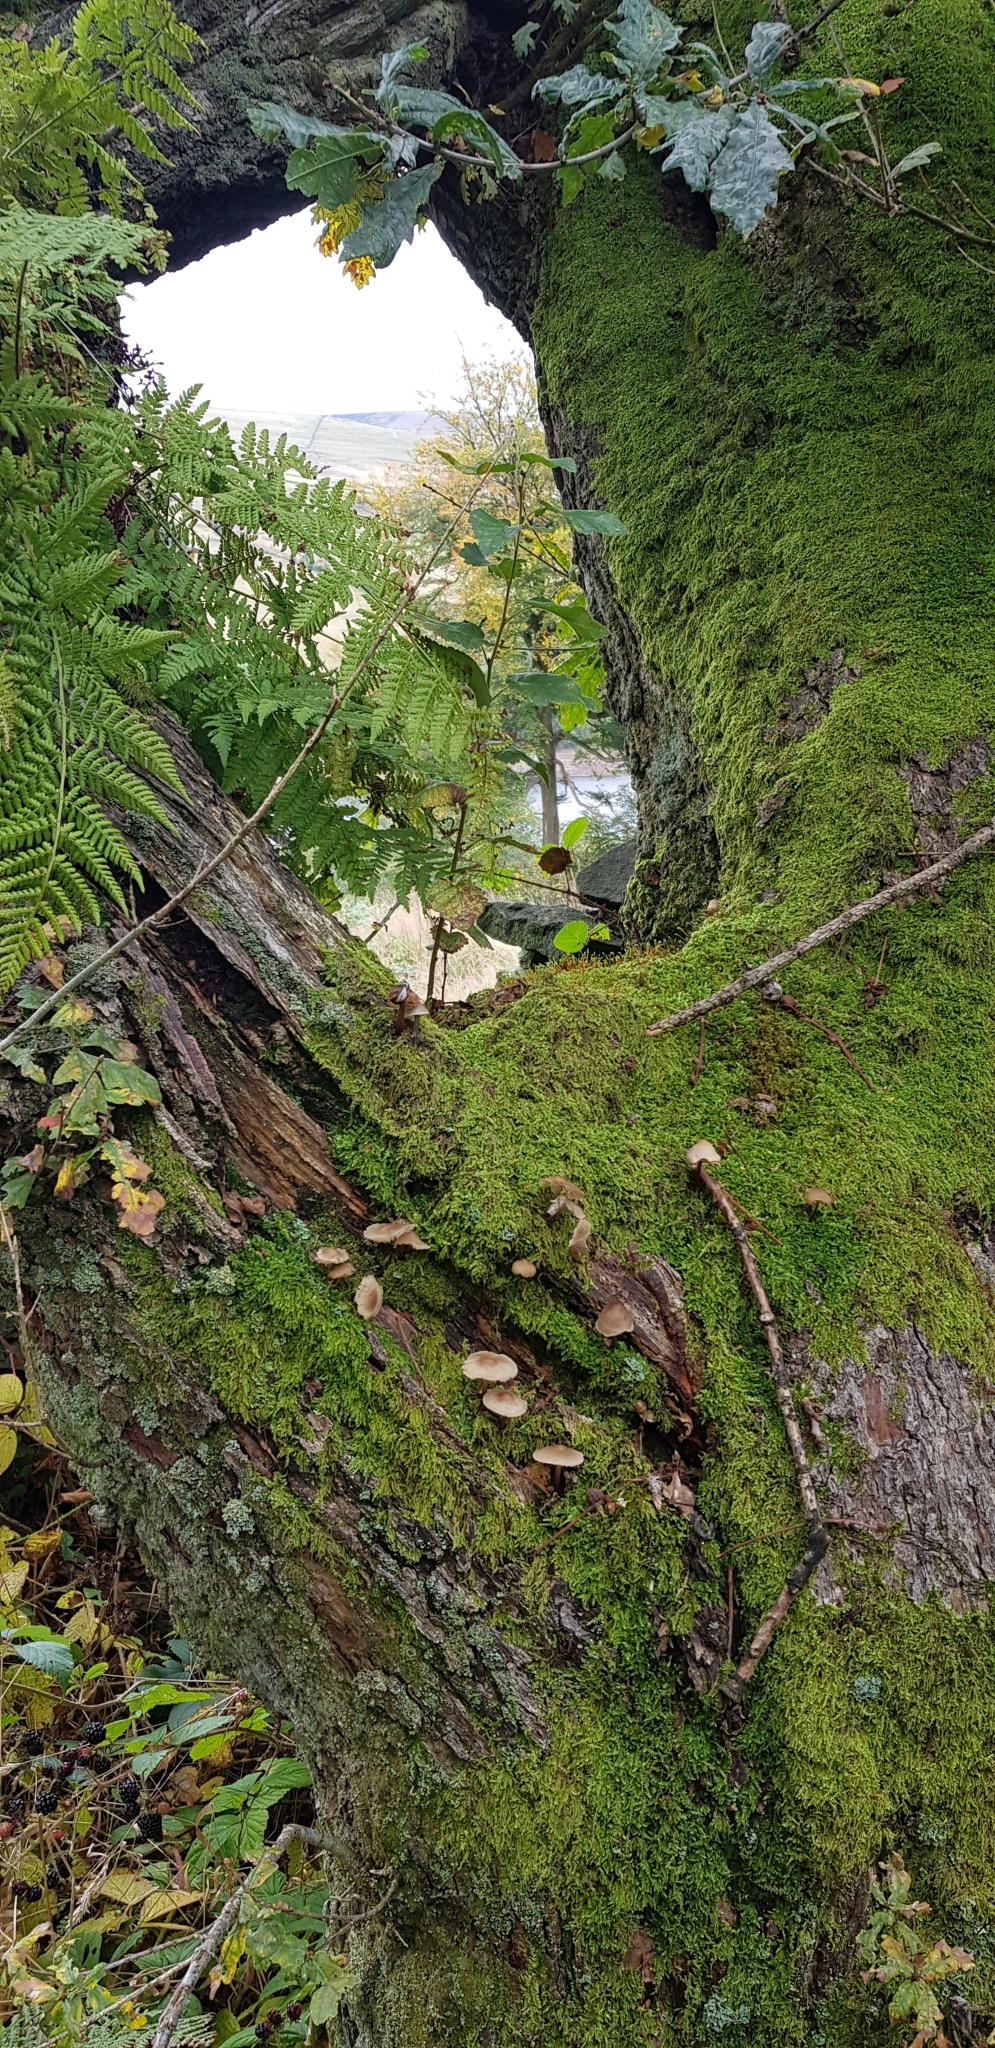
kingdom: Plantae
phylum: Bryophyta
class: Bryopsida
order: Hypnales
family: Hypnaceae
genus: Hypnum
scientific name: Hypnum andoi
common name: Ando's plait moss
